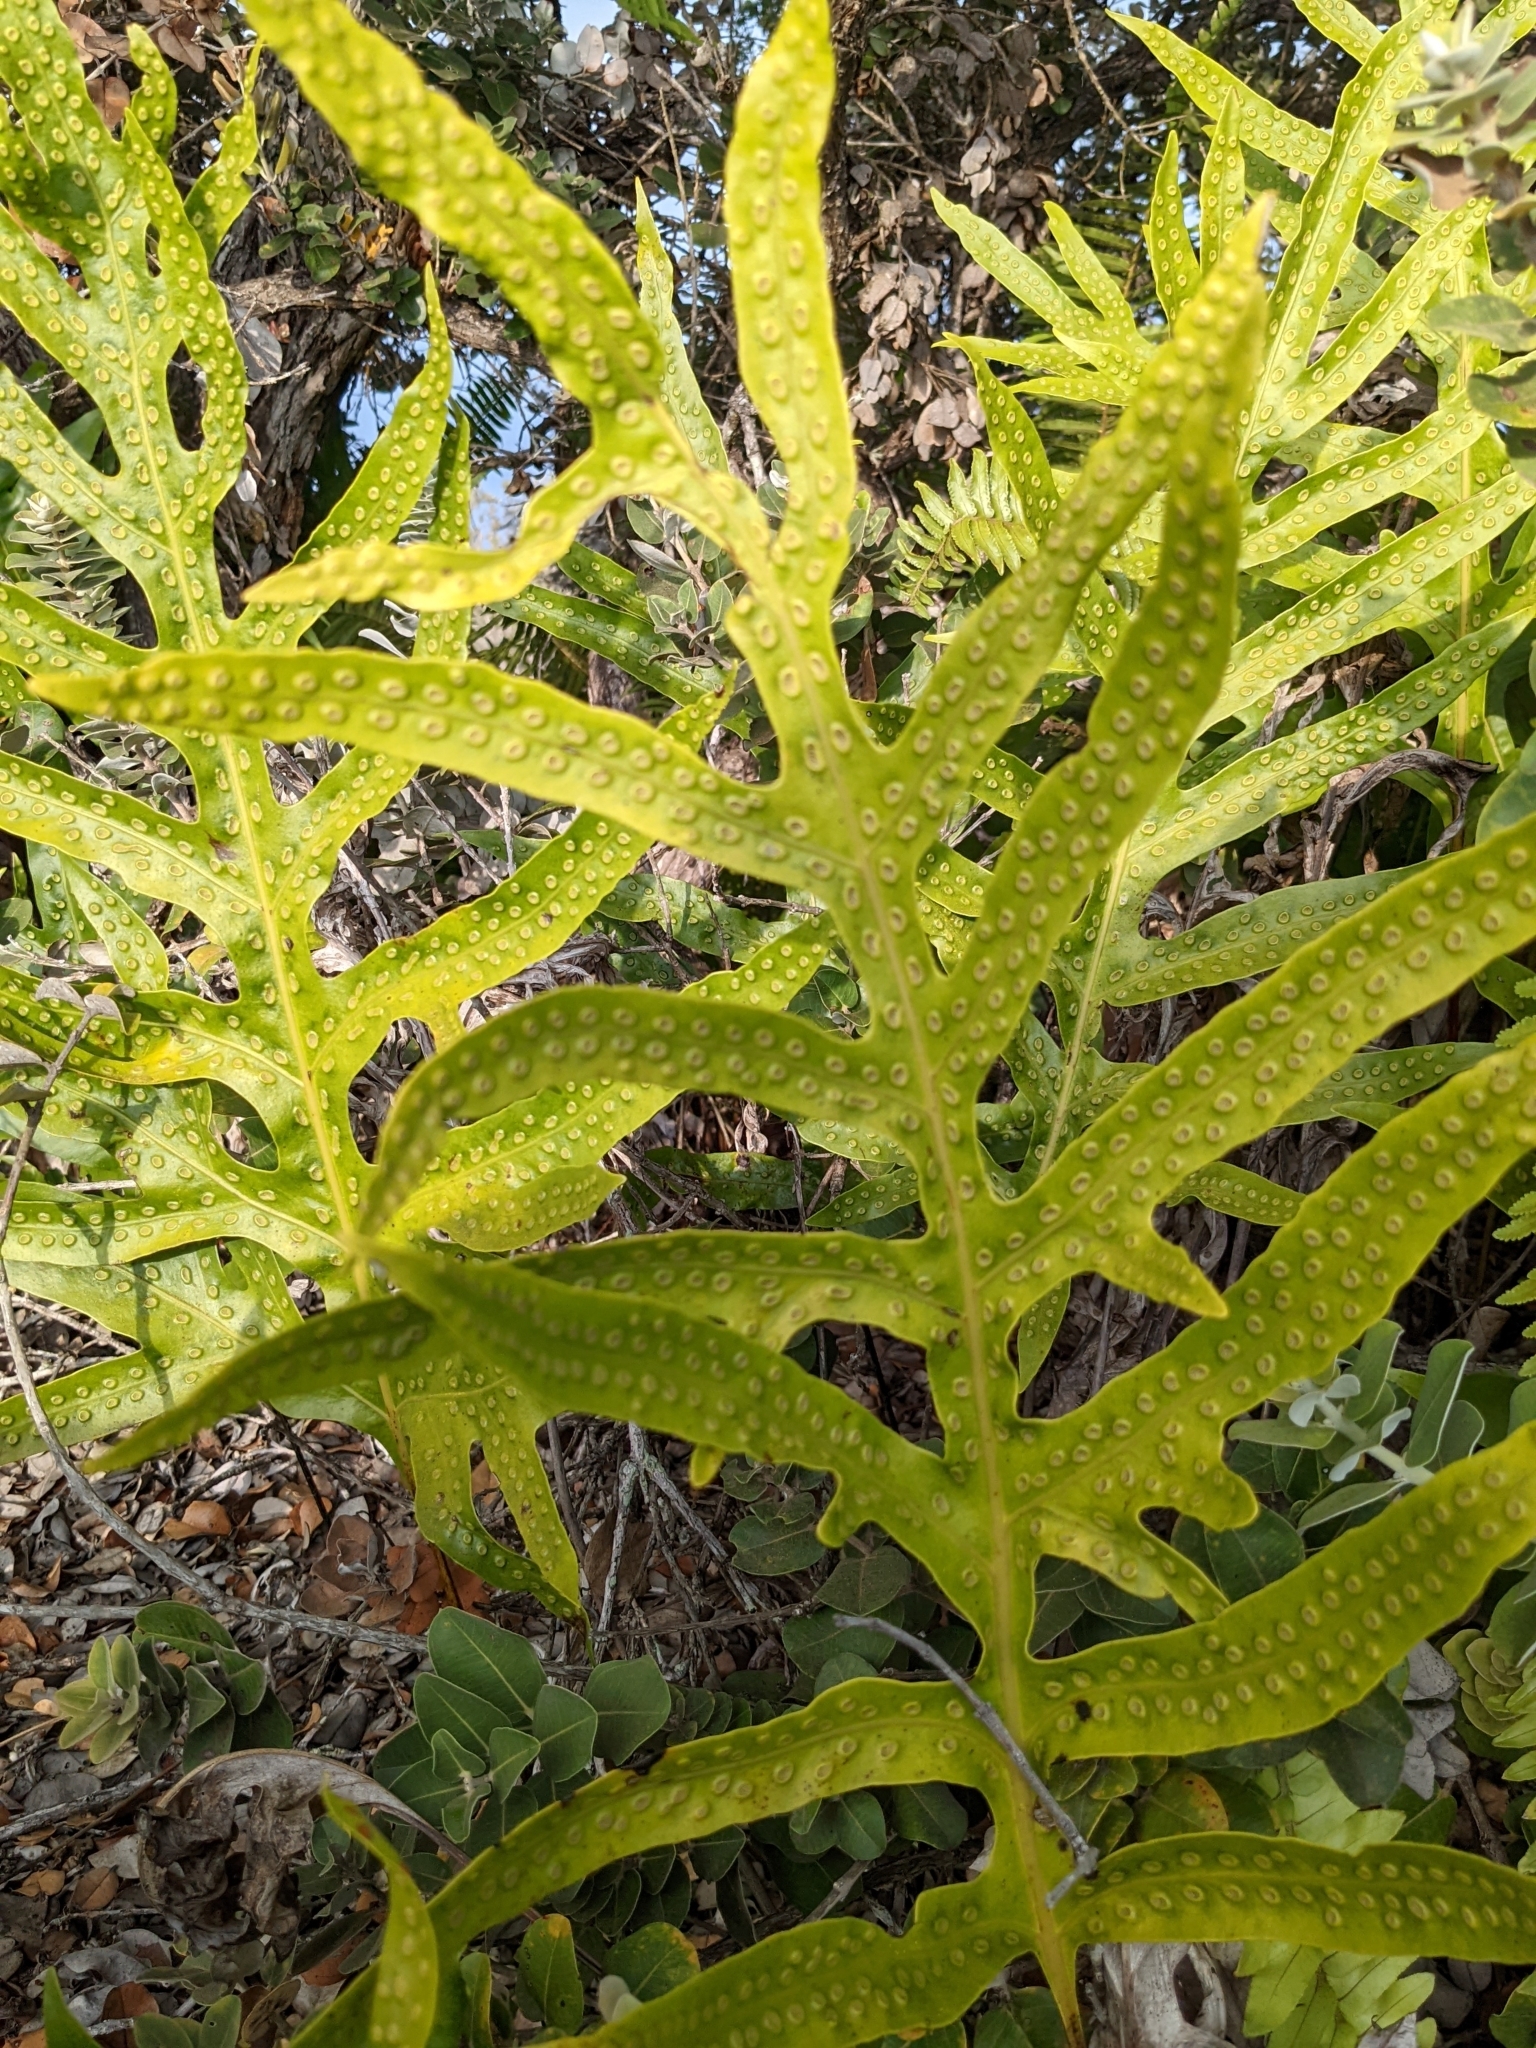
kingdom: Plantae
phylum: Tracheophyta
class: Polypodiopsida
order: Polypodiales
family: Polypodiaceae
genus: Microsorum
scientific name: Microsorum grossum
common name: Musk fern
